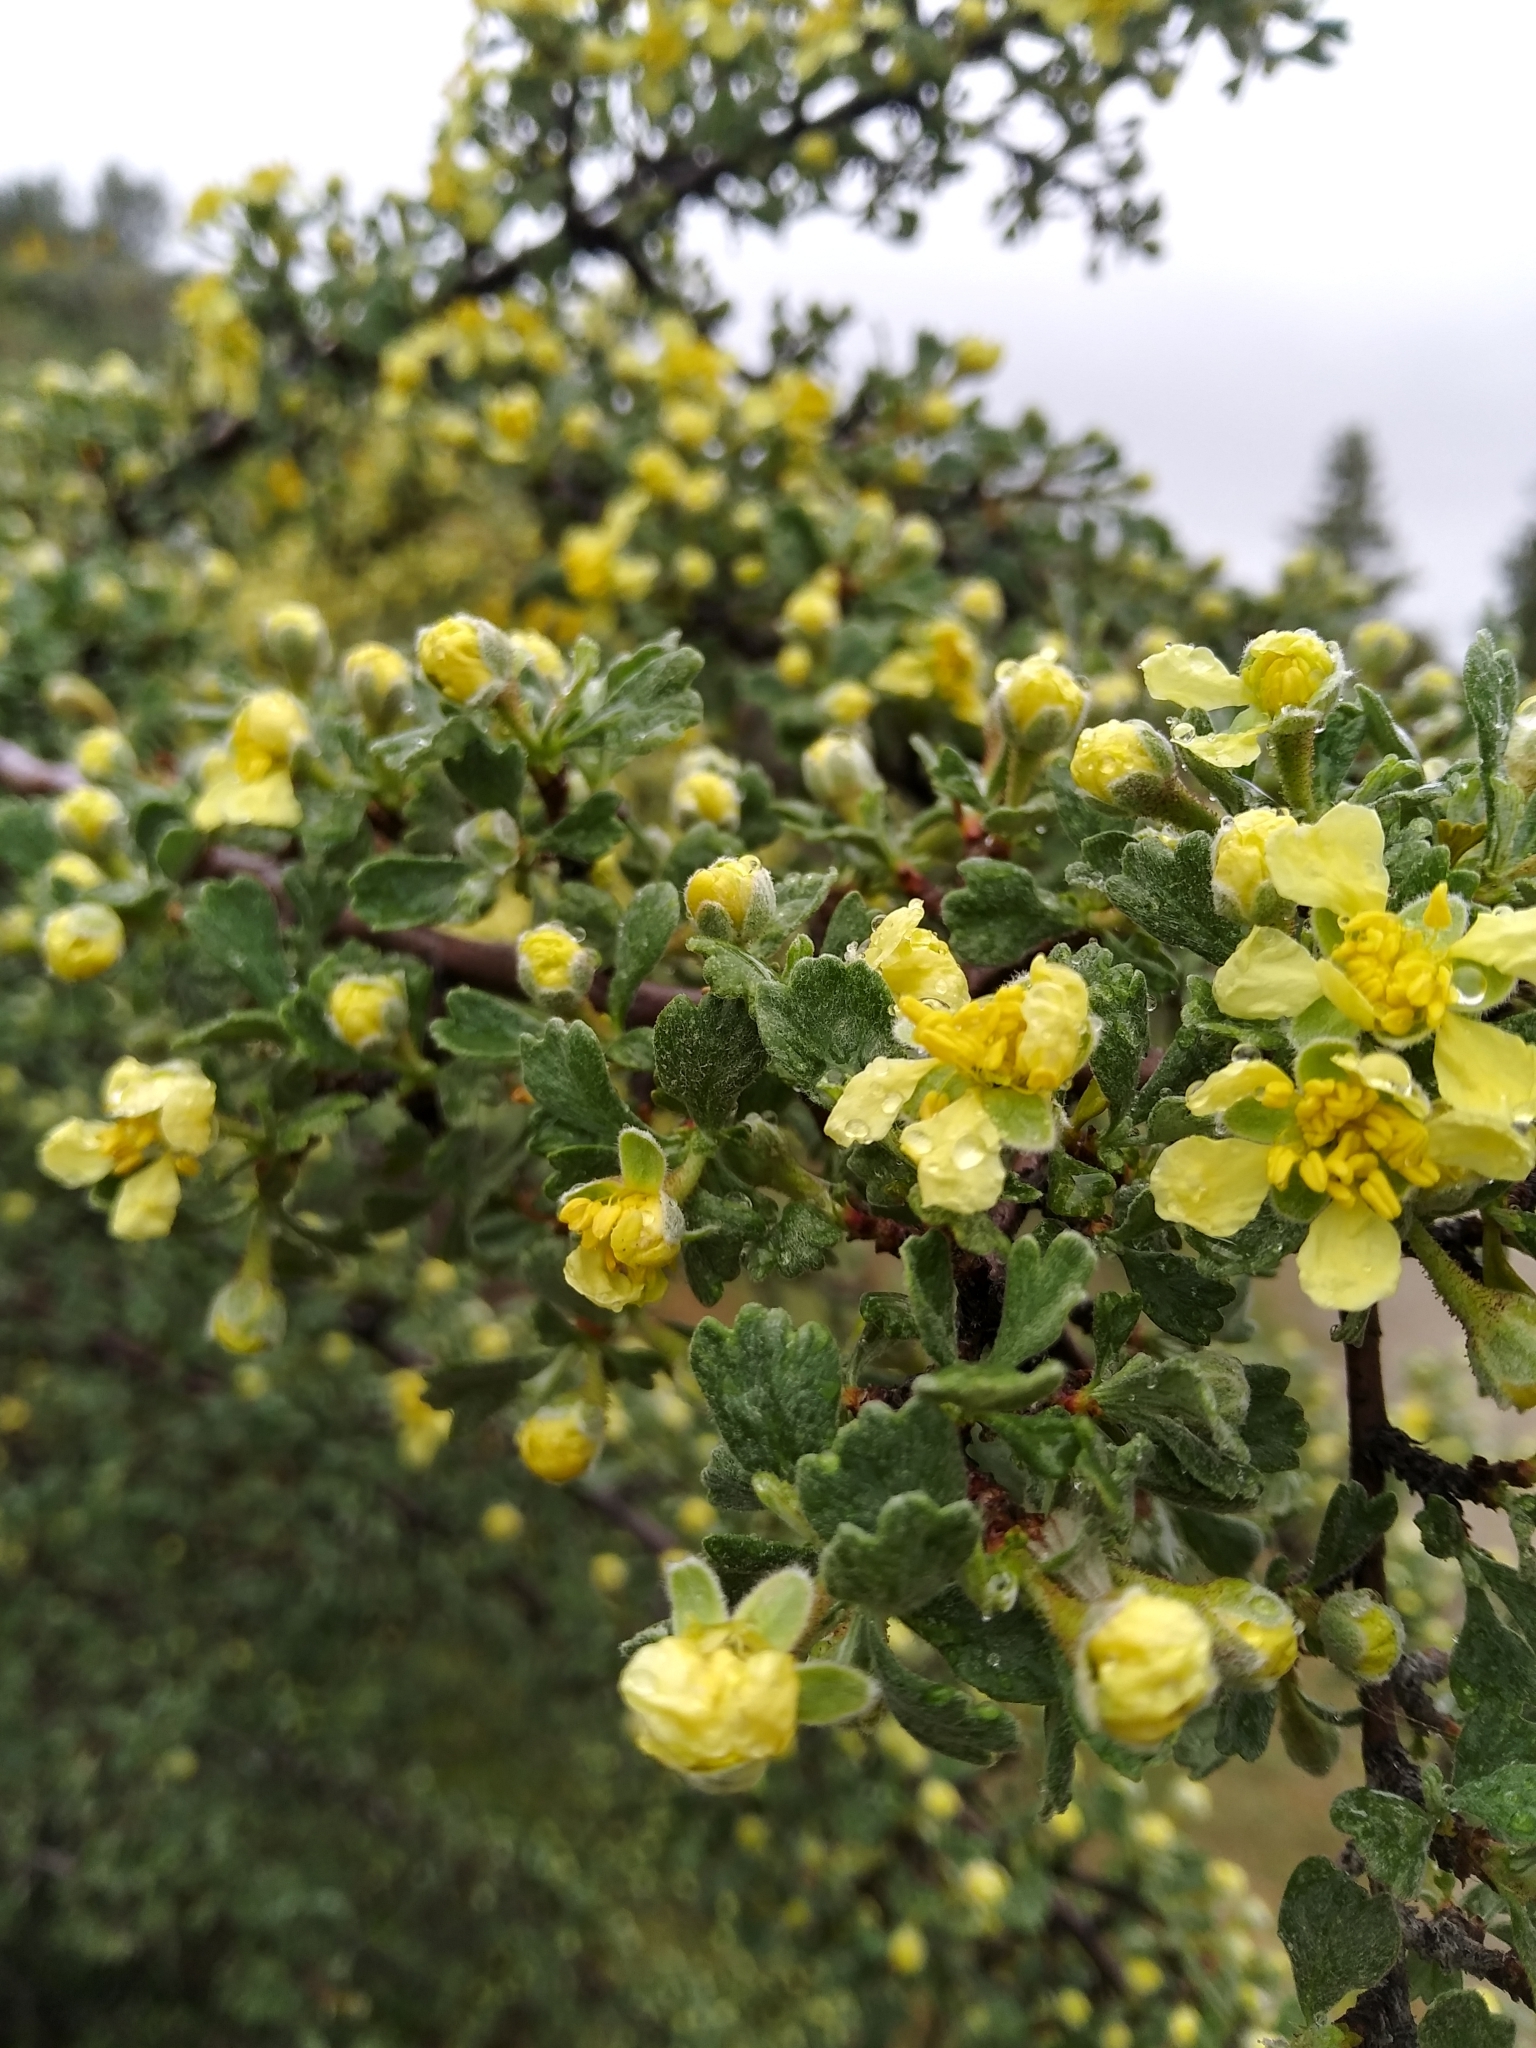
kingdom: Plantae
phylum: Tracheophyta
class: Magnoliopsida
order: Rosales
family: Rosaceae
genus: Purshia
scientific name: Purshia tridentata
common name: Antelope bitterbrush
